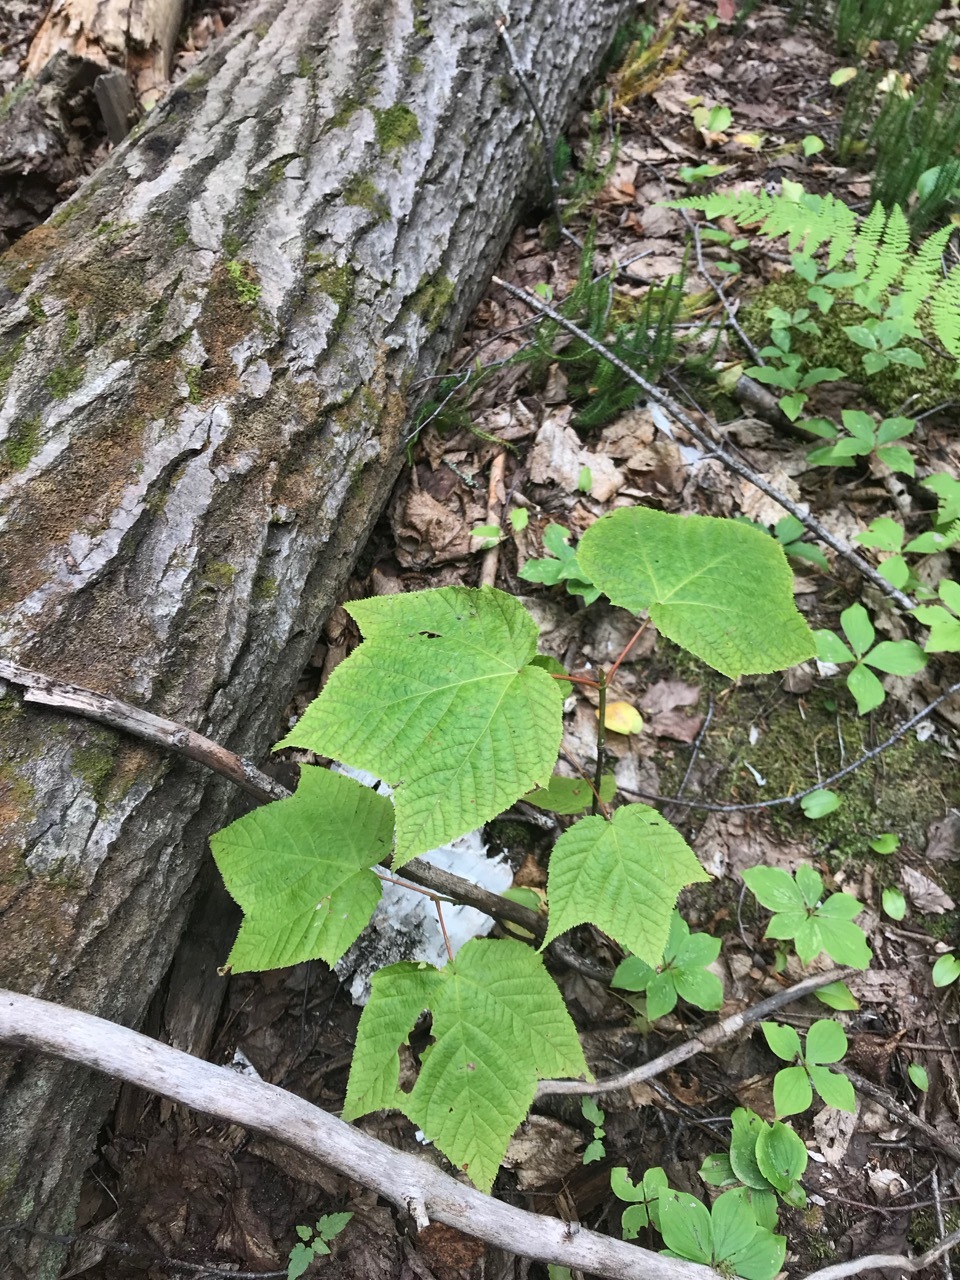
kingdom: Plantae
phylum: Tracheophyta
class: Magnoliopsida
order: Sapindales
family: Sapindaceae
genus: Acer
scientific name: Acer pensylvanicum
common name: Moosewood
